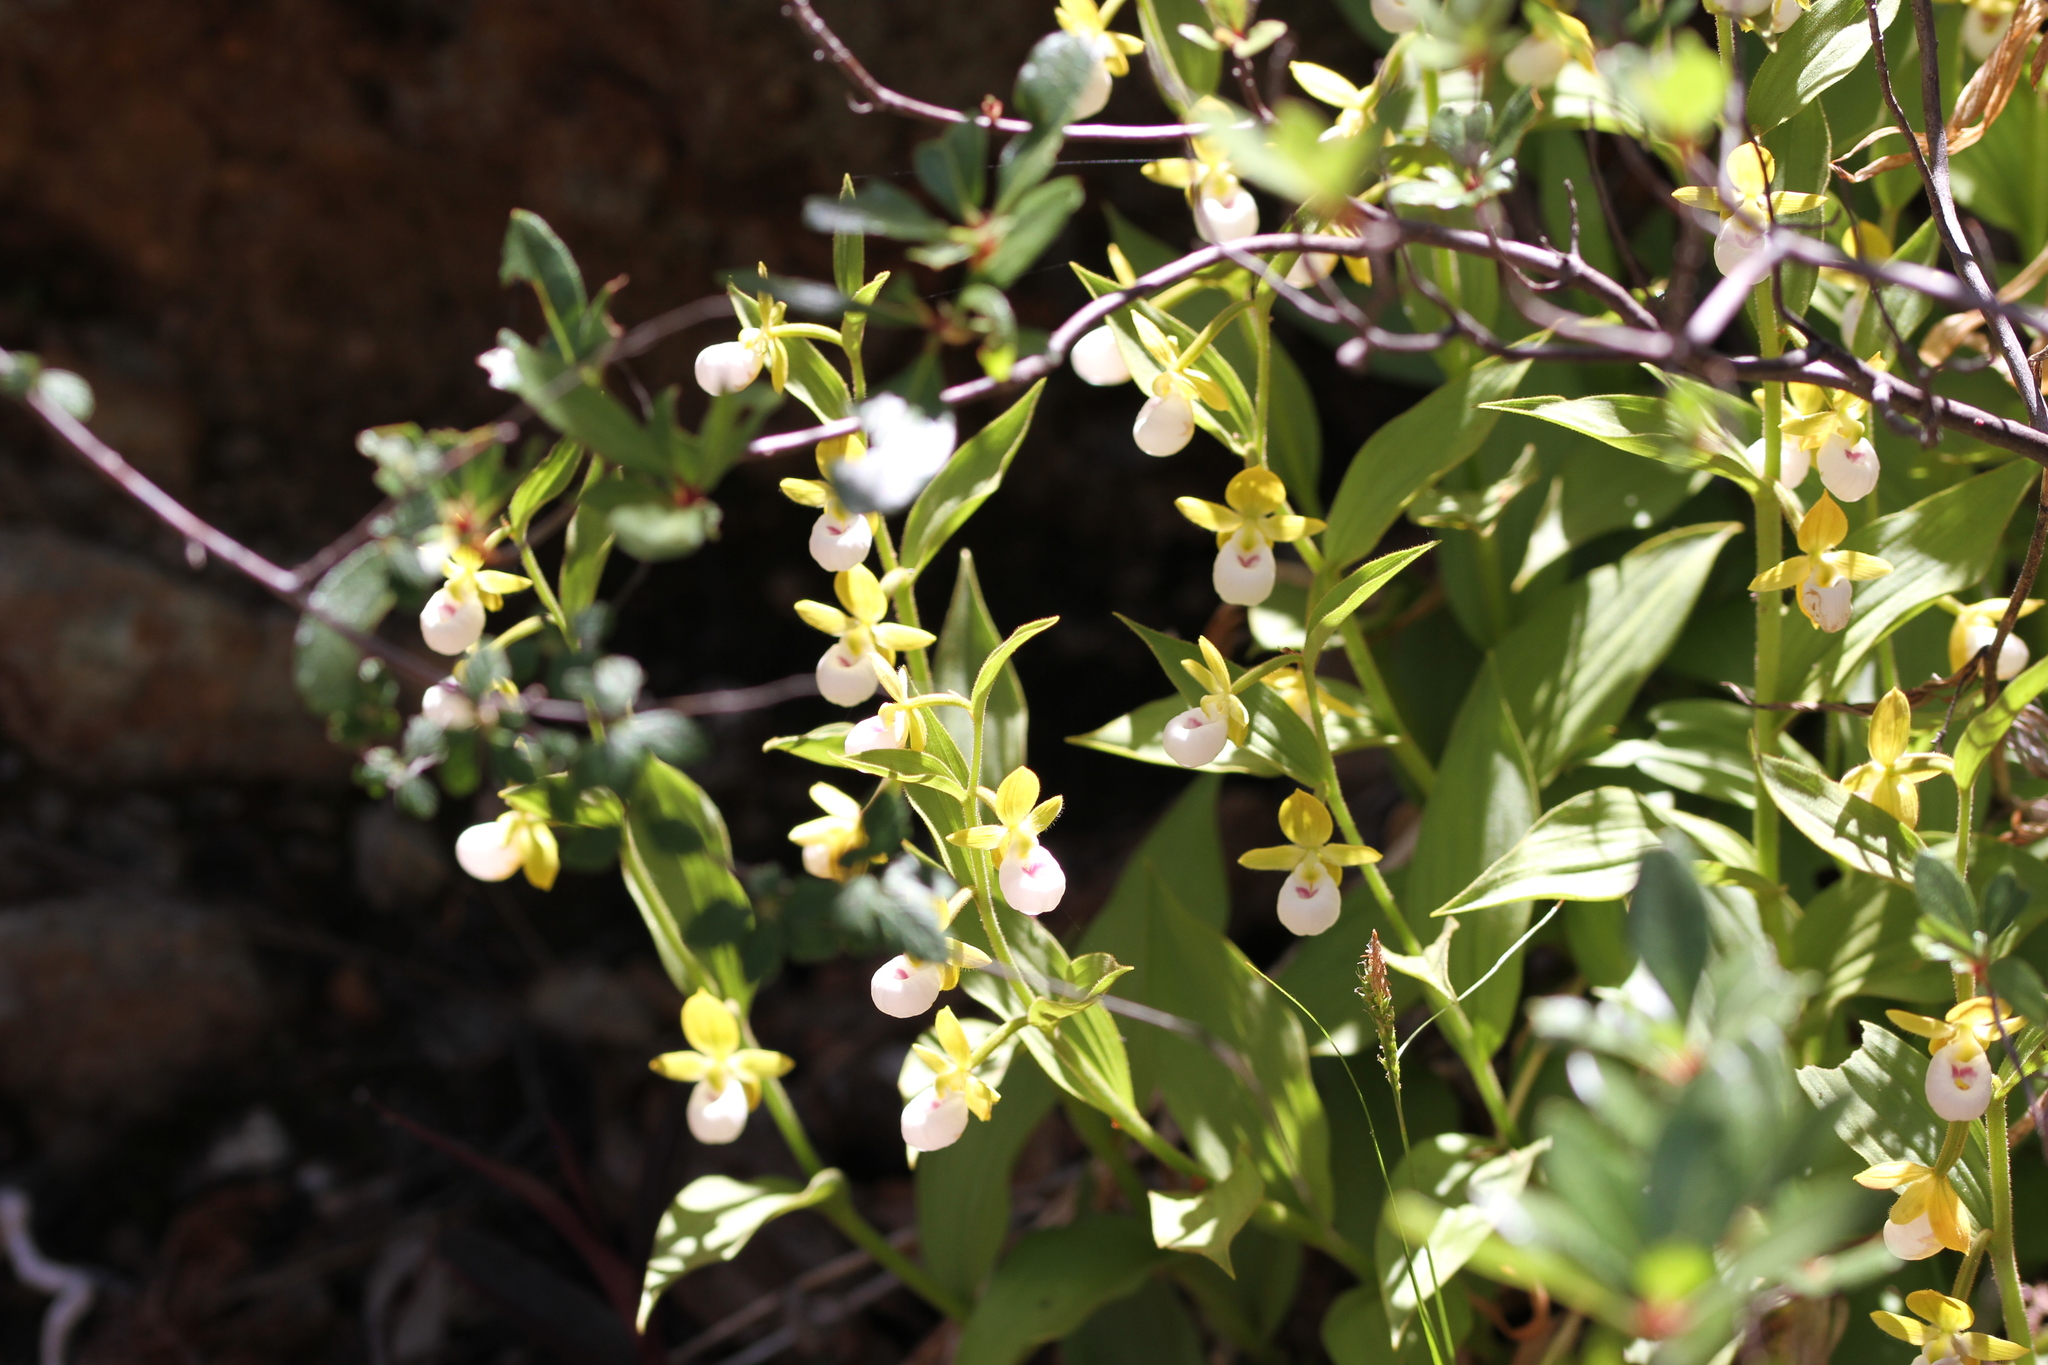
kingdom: Plantae
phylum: Tracheophyta
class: Liliopsida
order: Asparagales
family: Orchidaceae
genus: Cypripedium
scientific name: Cypripedium californicum
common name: California lady's slipper
